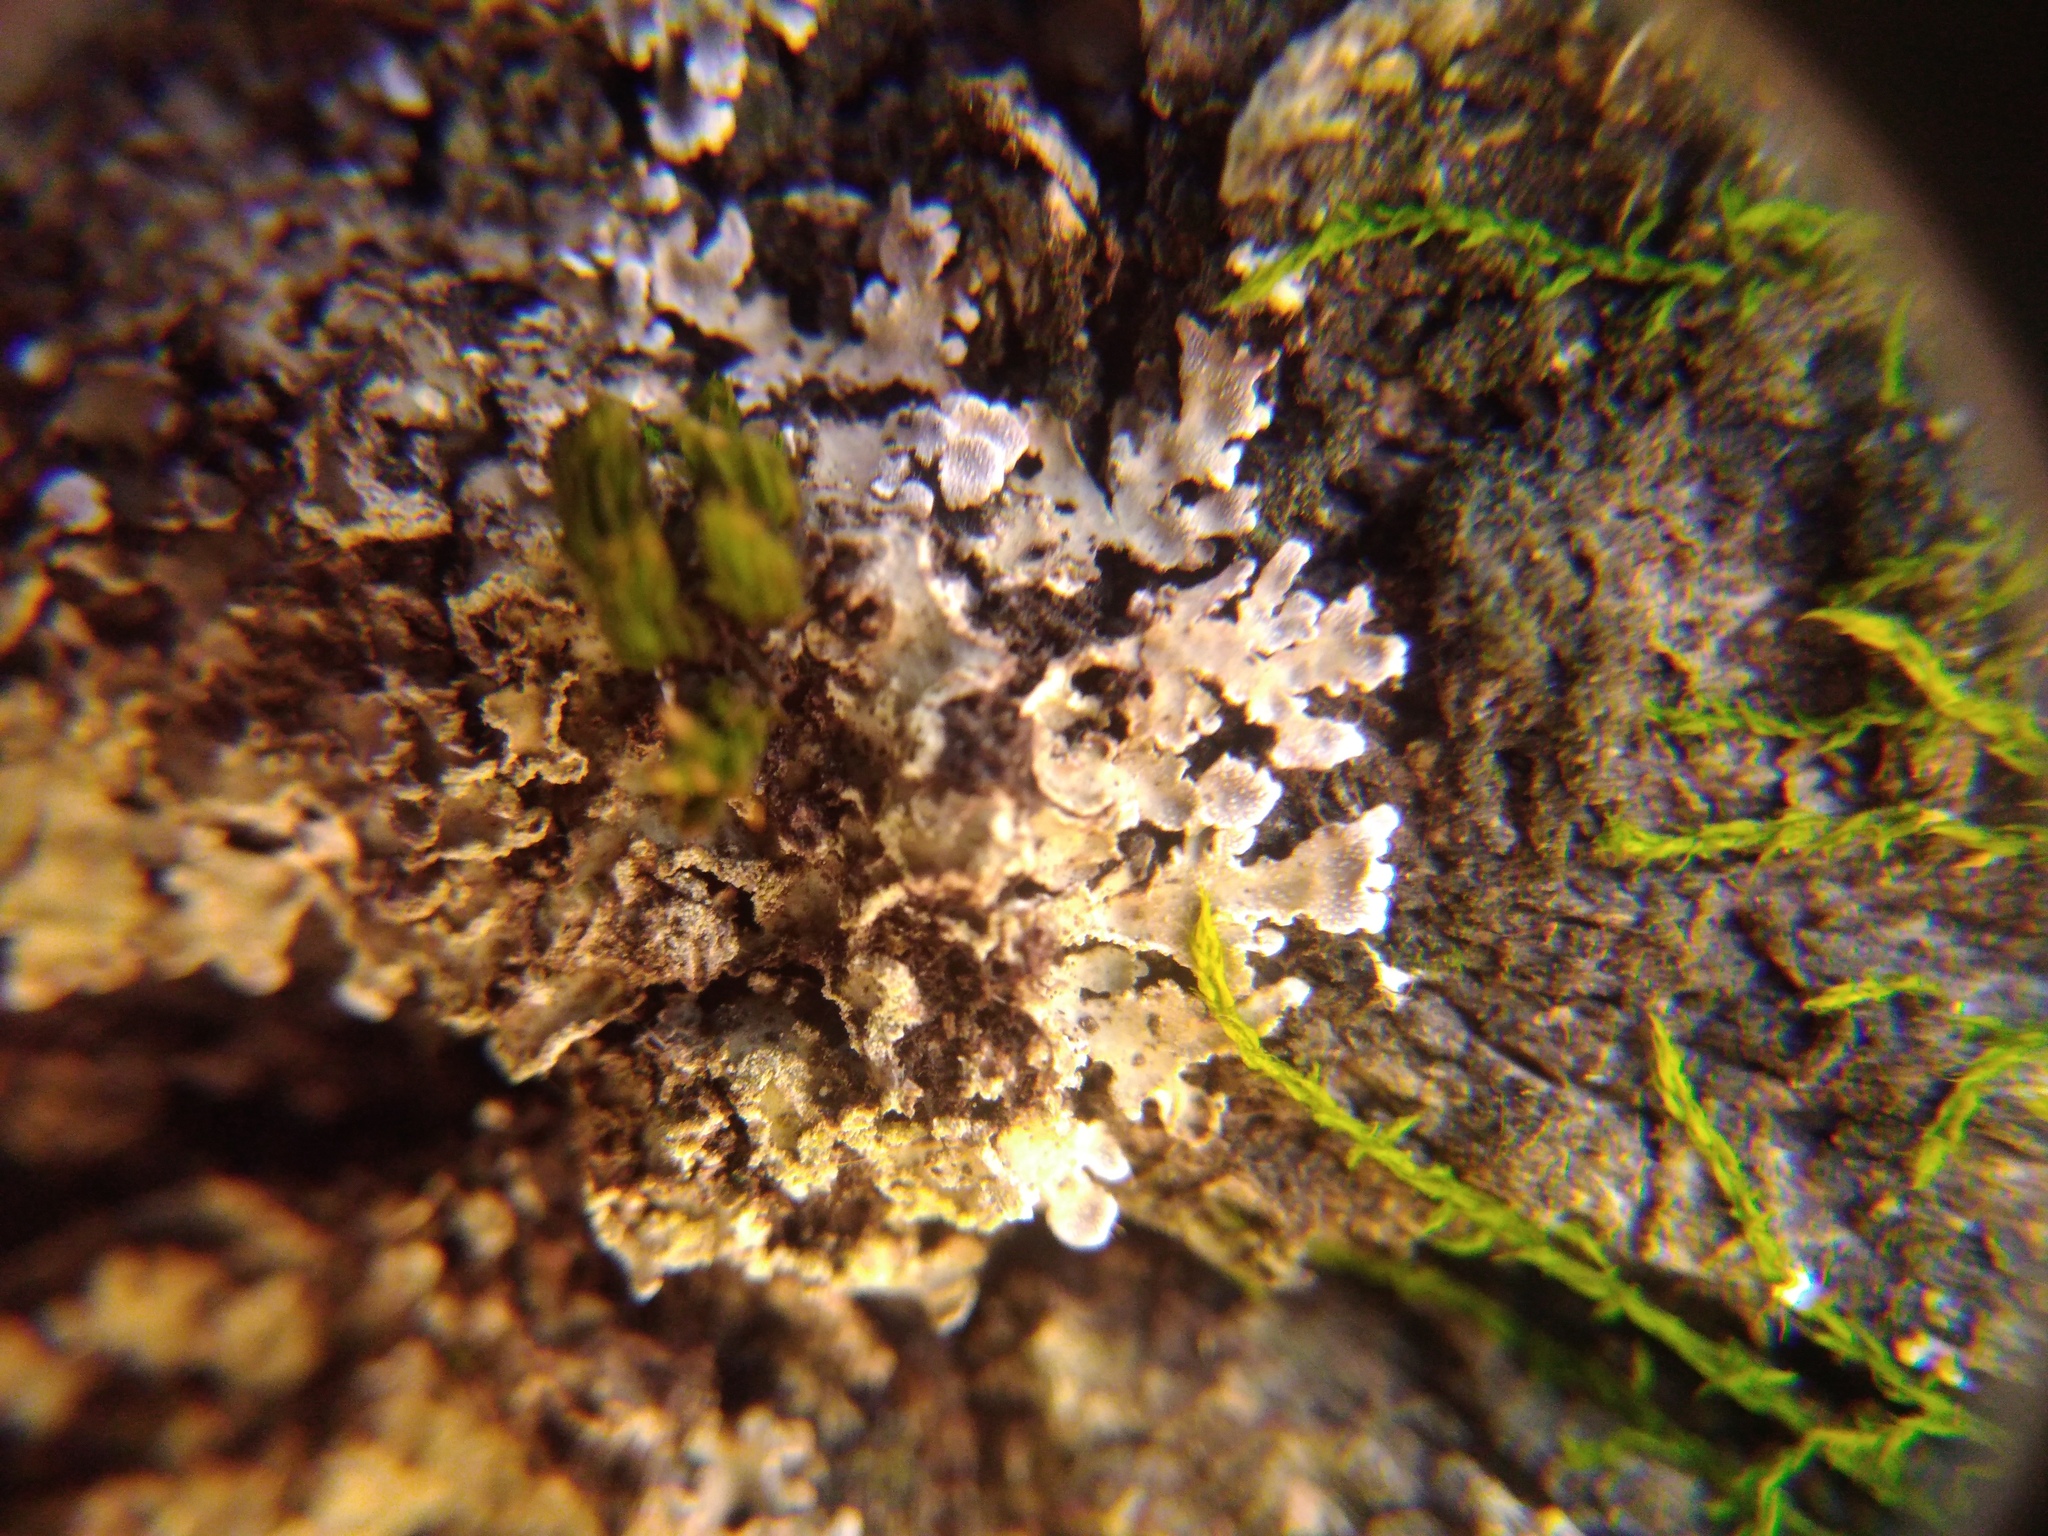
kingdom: Fungi
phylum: Ascomycota
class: Lecanoromycetes
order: Caliciales
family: Physciaceae
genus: Physconia
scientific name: Physconia enteroxantha
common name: Yellow-edged frost lichen
